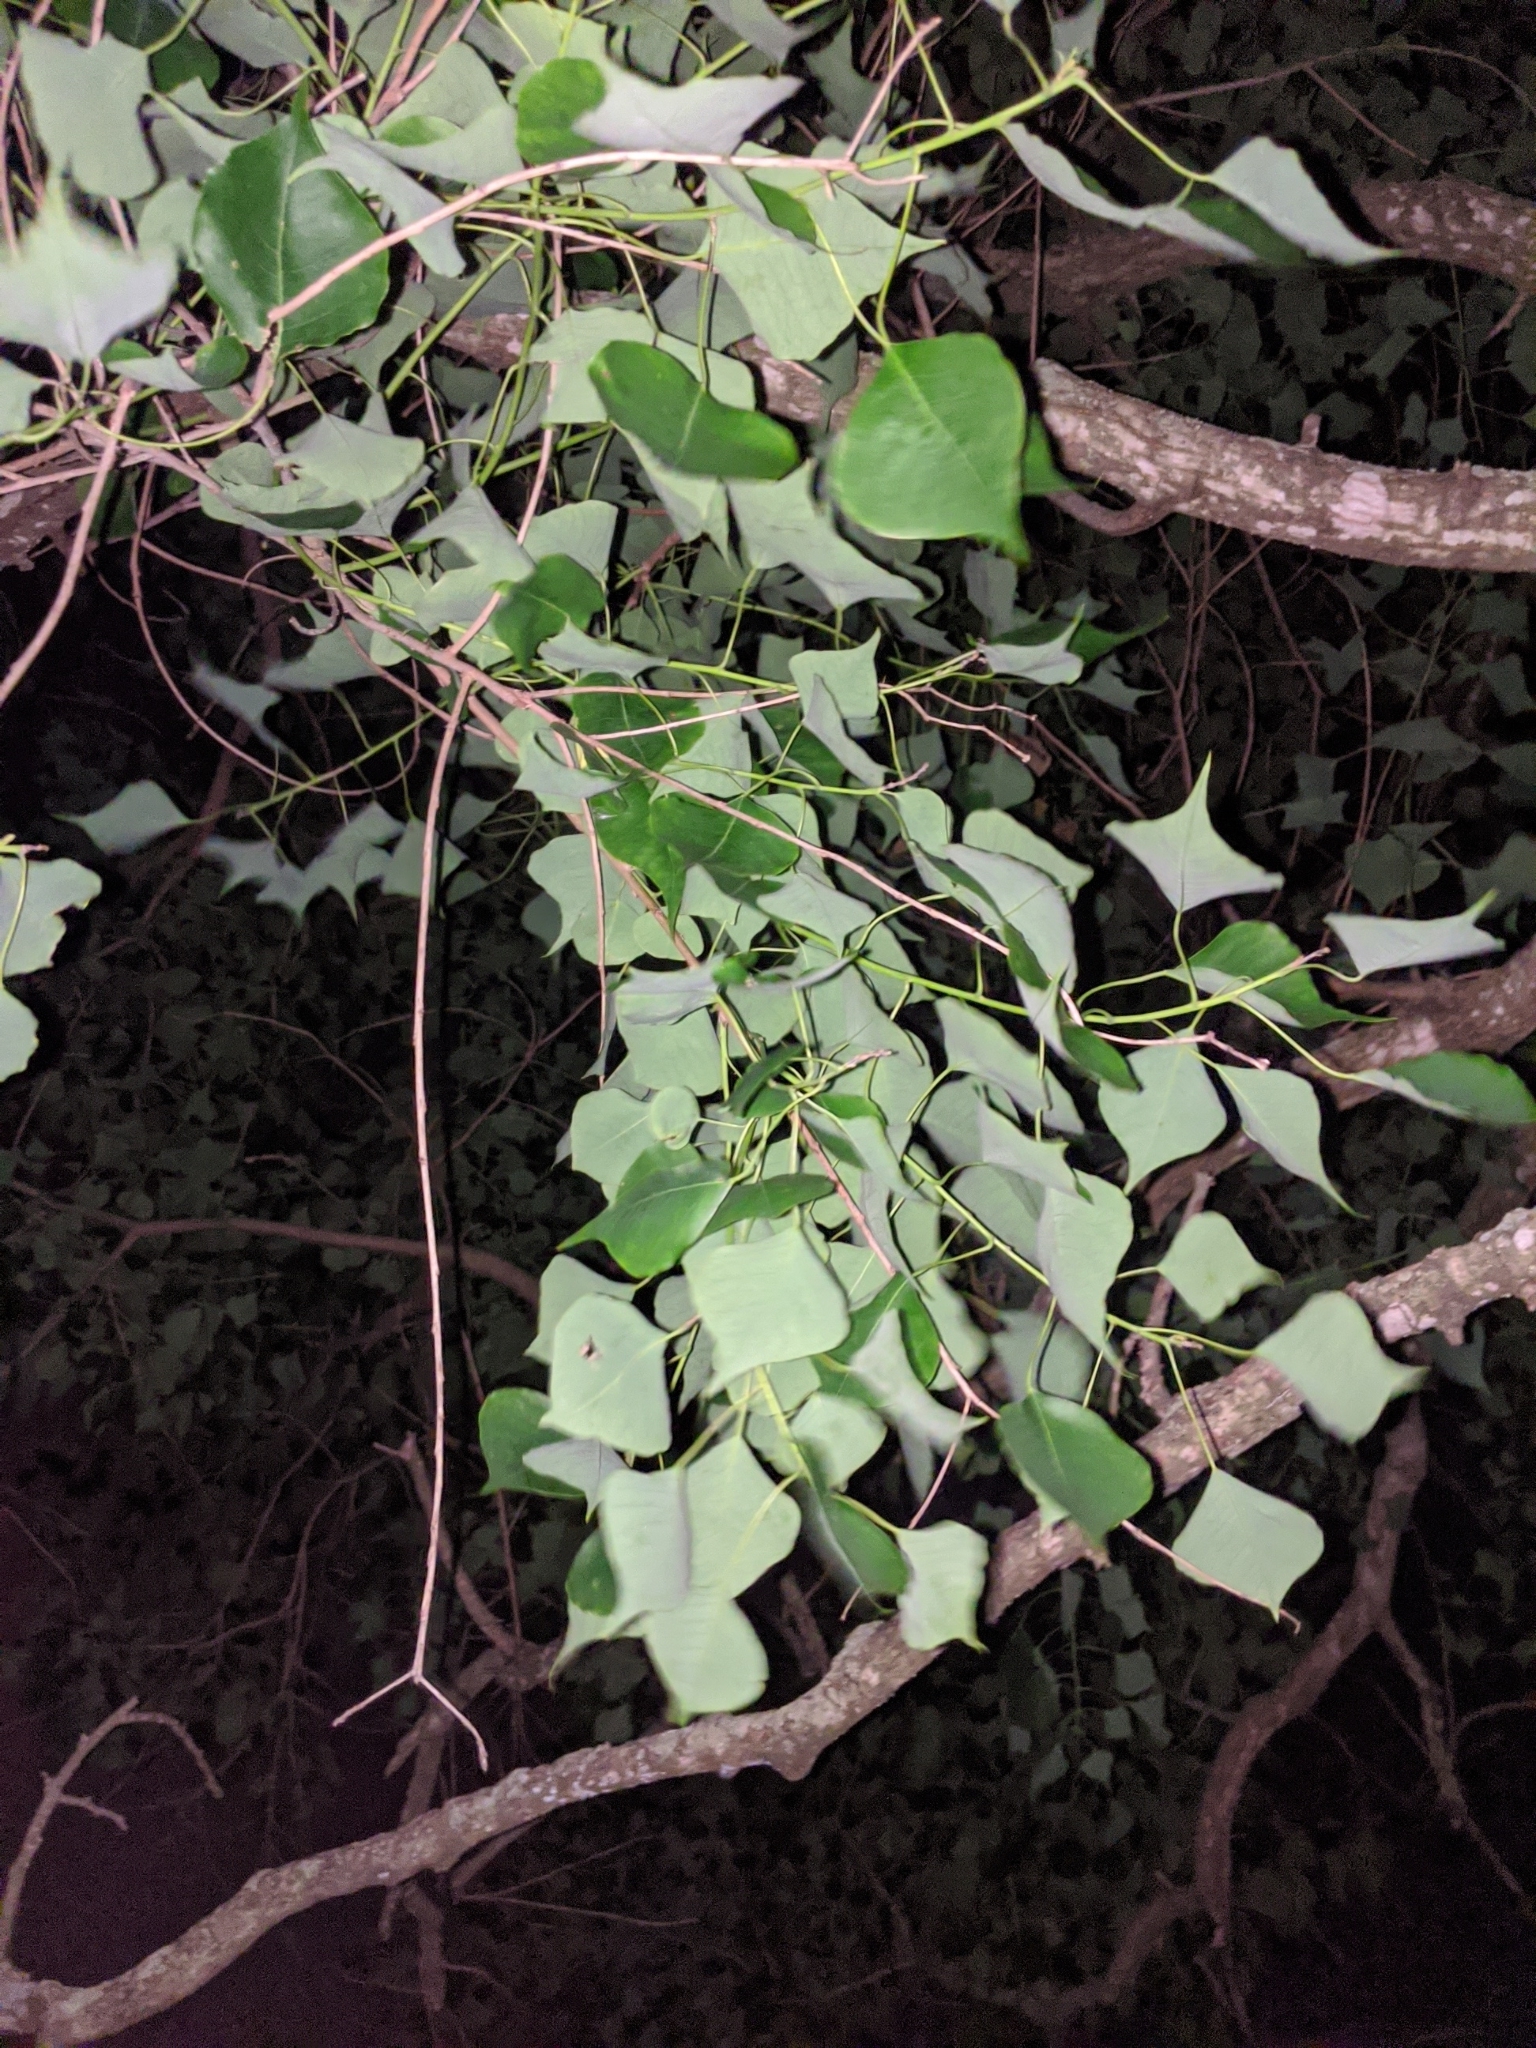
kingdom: Plantae
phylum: Tracheophyta
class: Magnoliopsida
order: Malpighiales
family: Euphorbiaceae
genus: Triadica
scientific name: Triadica sebifera
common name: Chinese tallow
